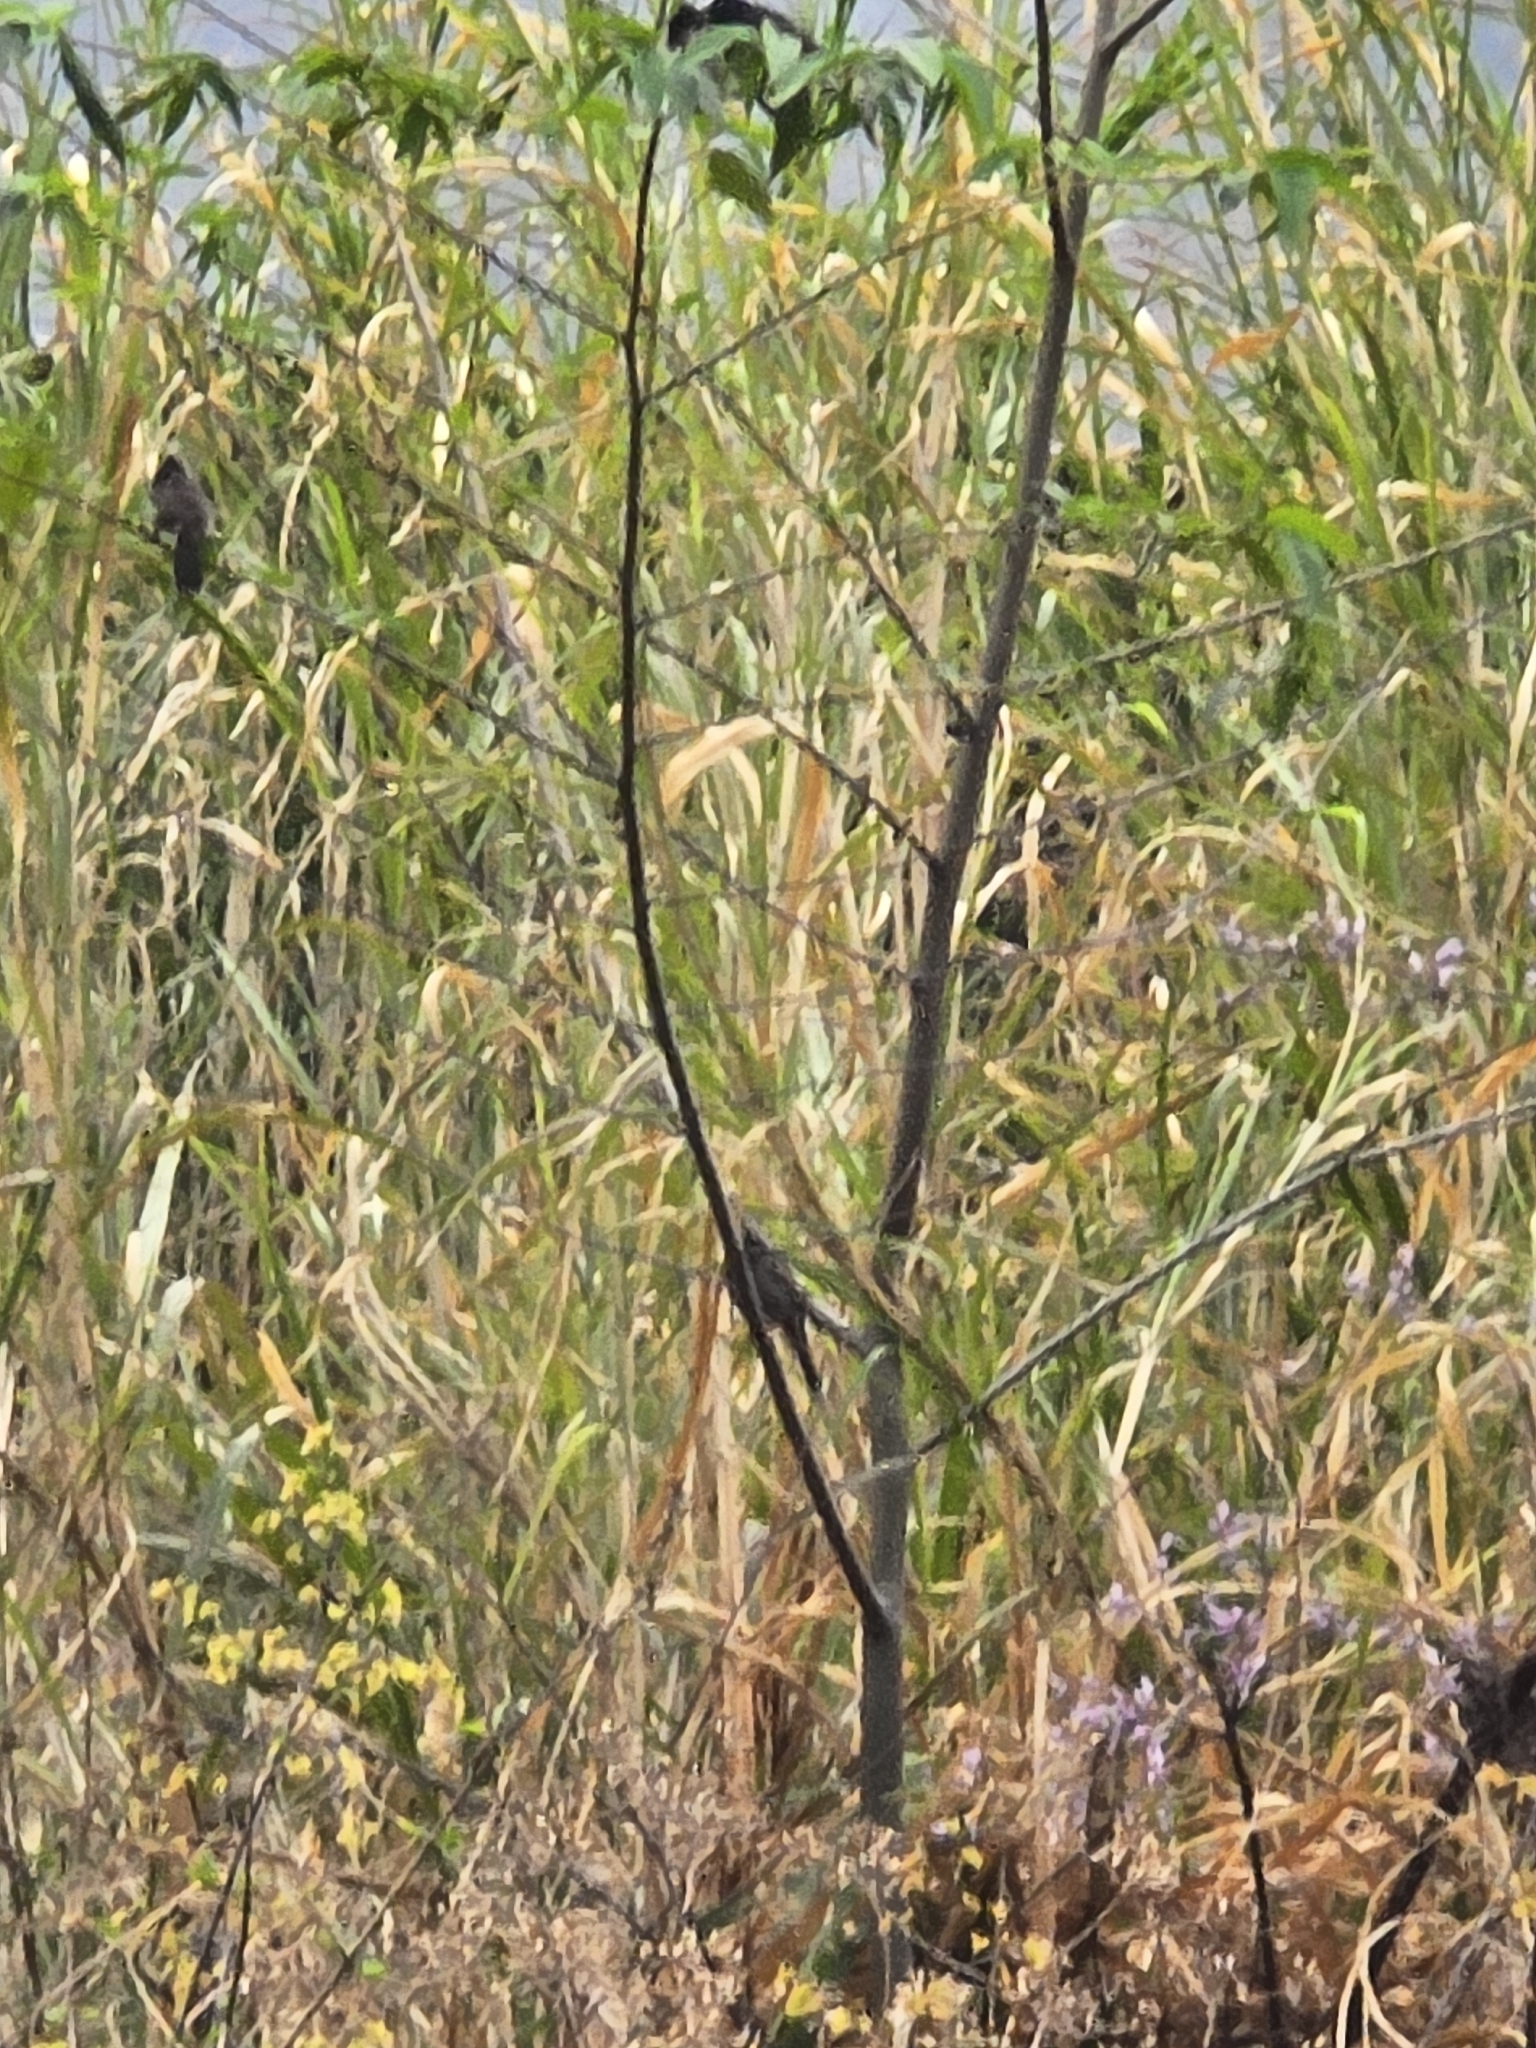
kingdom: Animalia
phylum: Chordata
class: Aves
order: Passeriformes
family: Pycnonotidae
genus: Pycnonotus
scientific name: Pycnonotus cafer
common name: Red-vented bulbul
